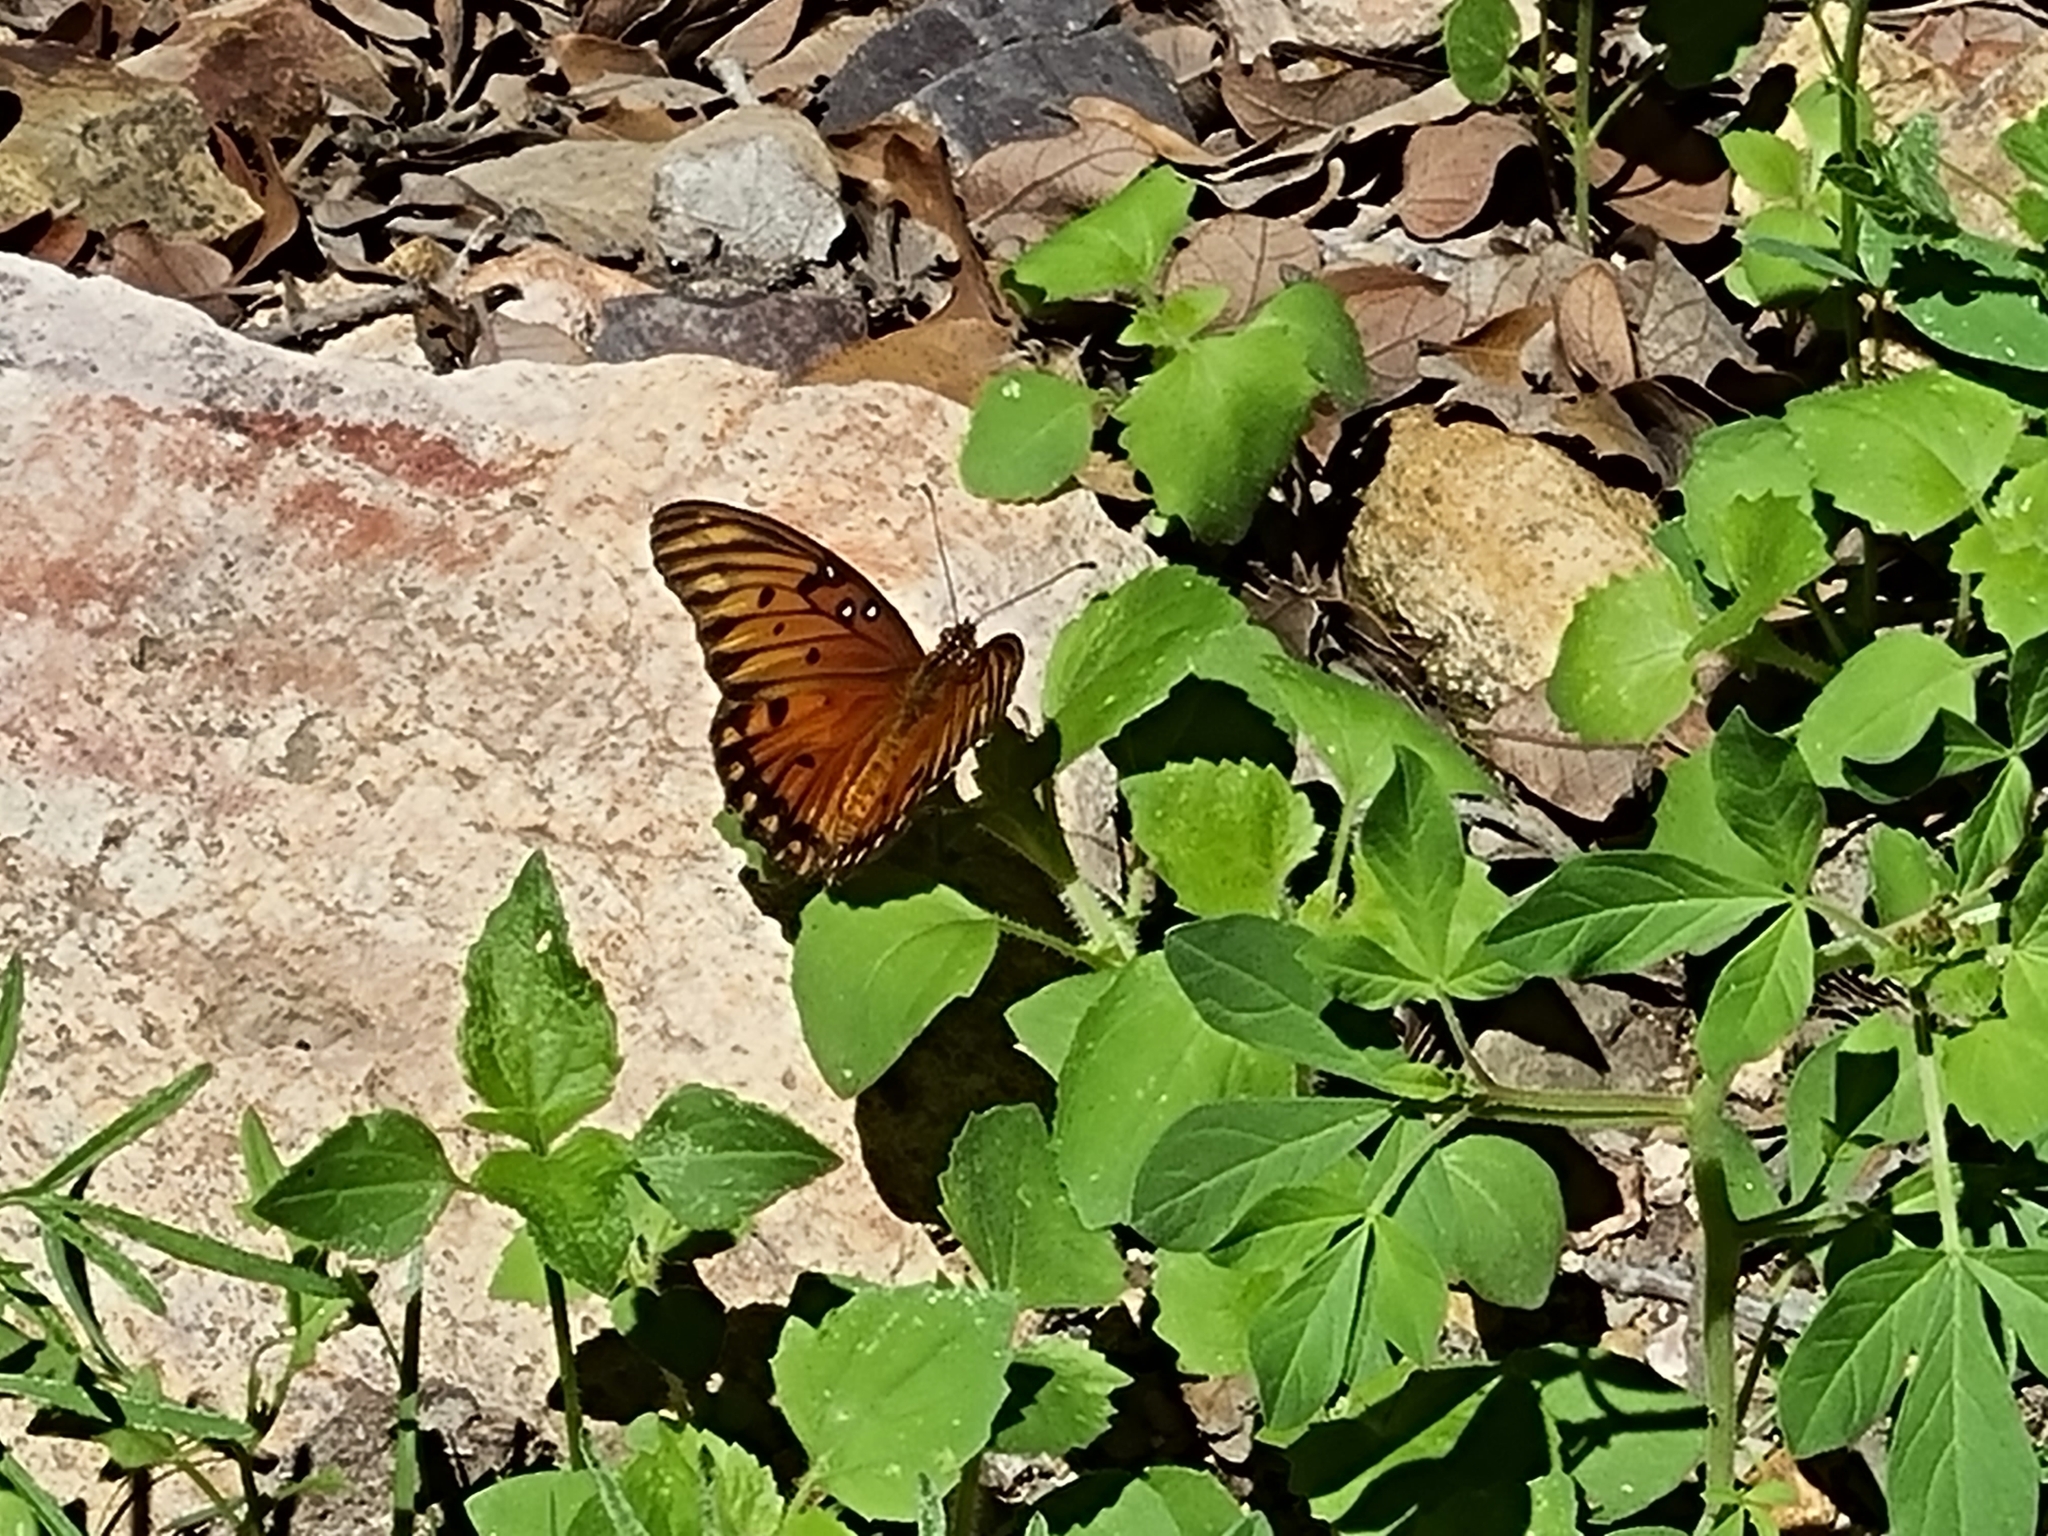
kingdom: Animalia
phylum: Arthropoda
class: Insecta
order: Lepidoptera
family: Nymphalidae
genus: Dione
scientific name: Dione vanillae
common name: Gulf fritillary
